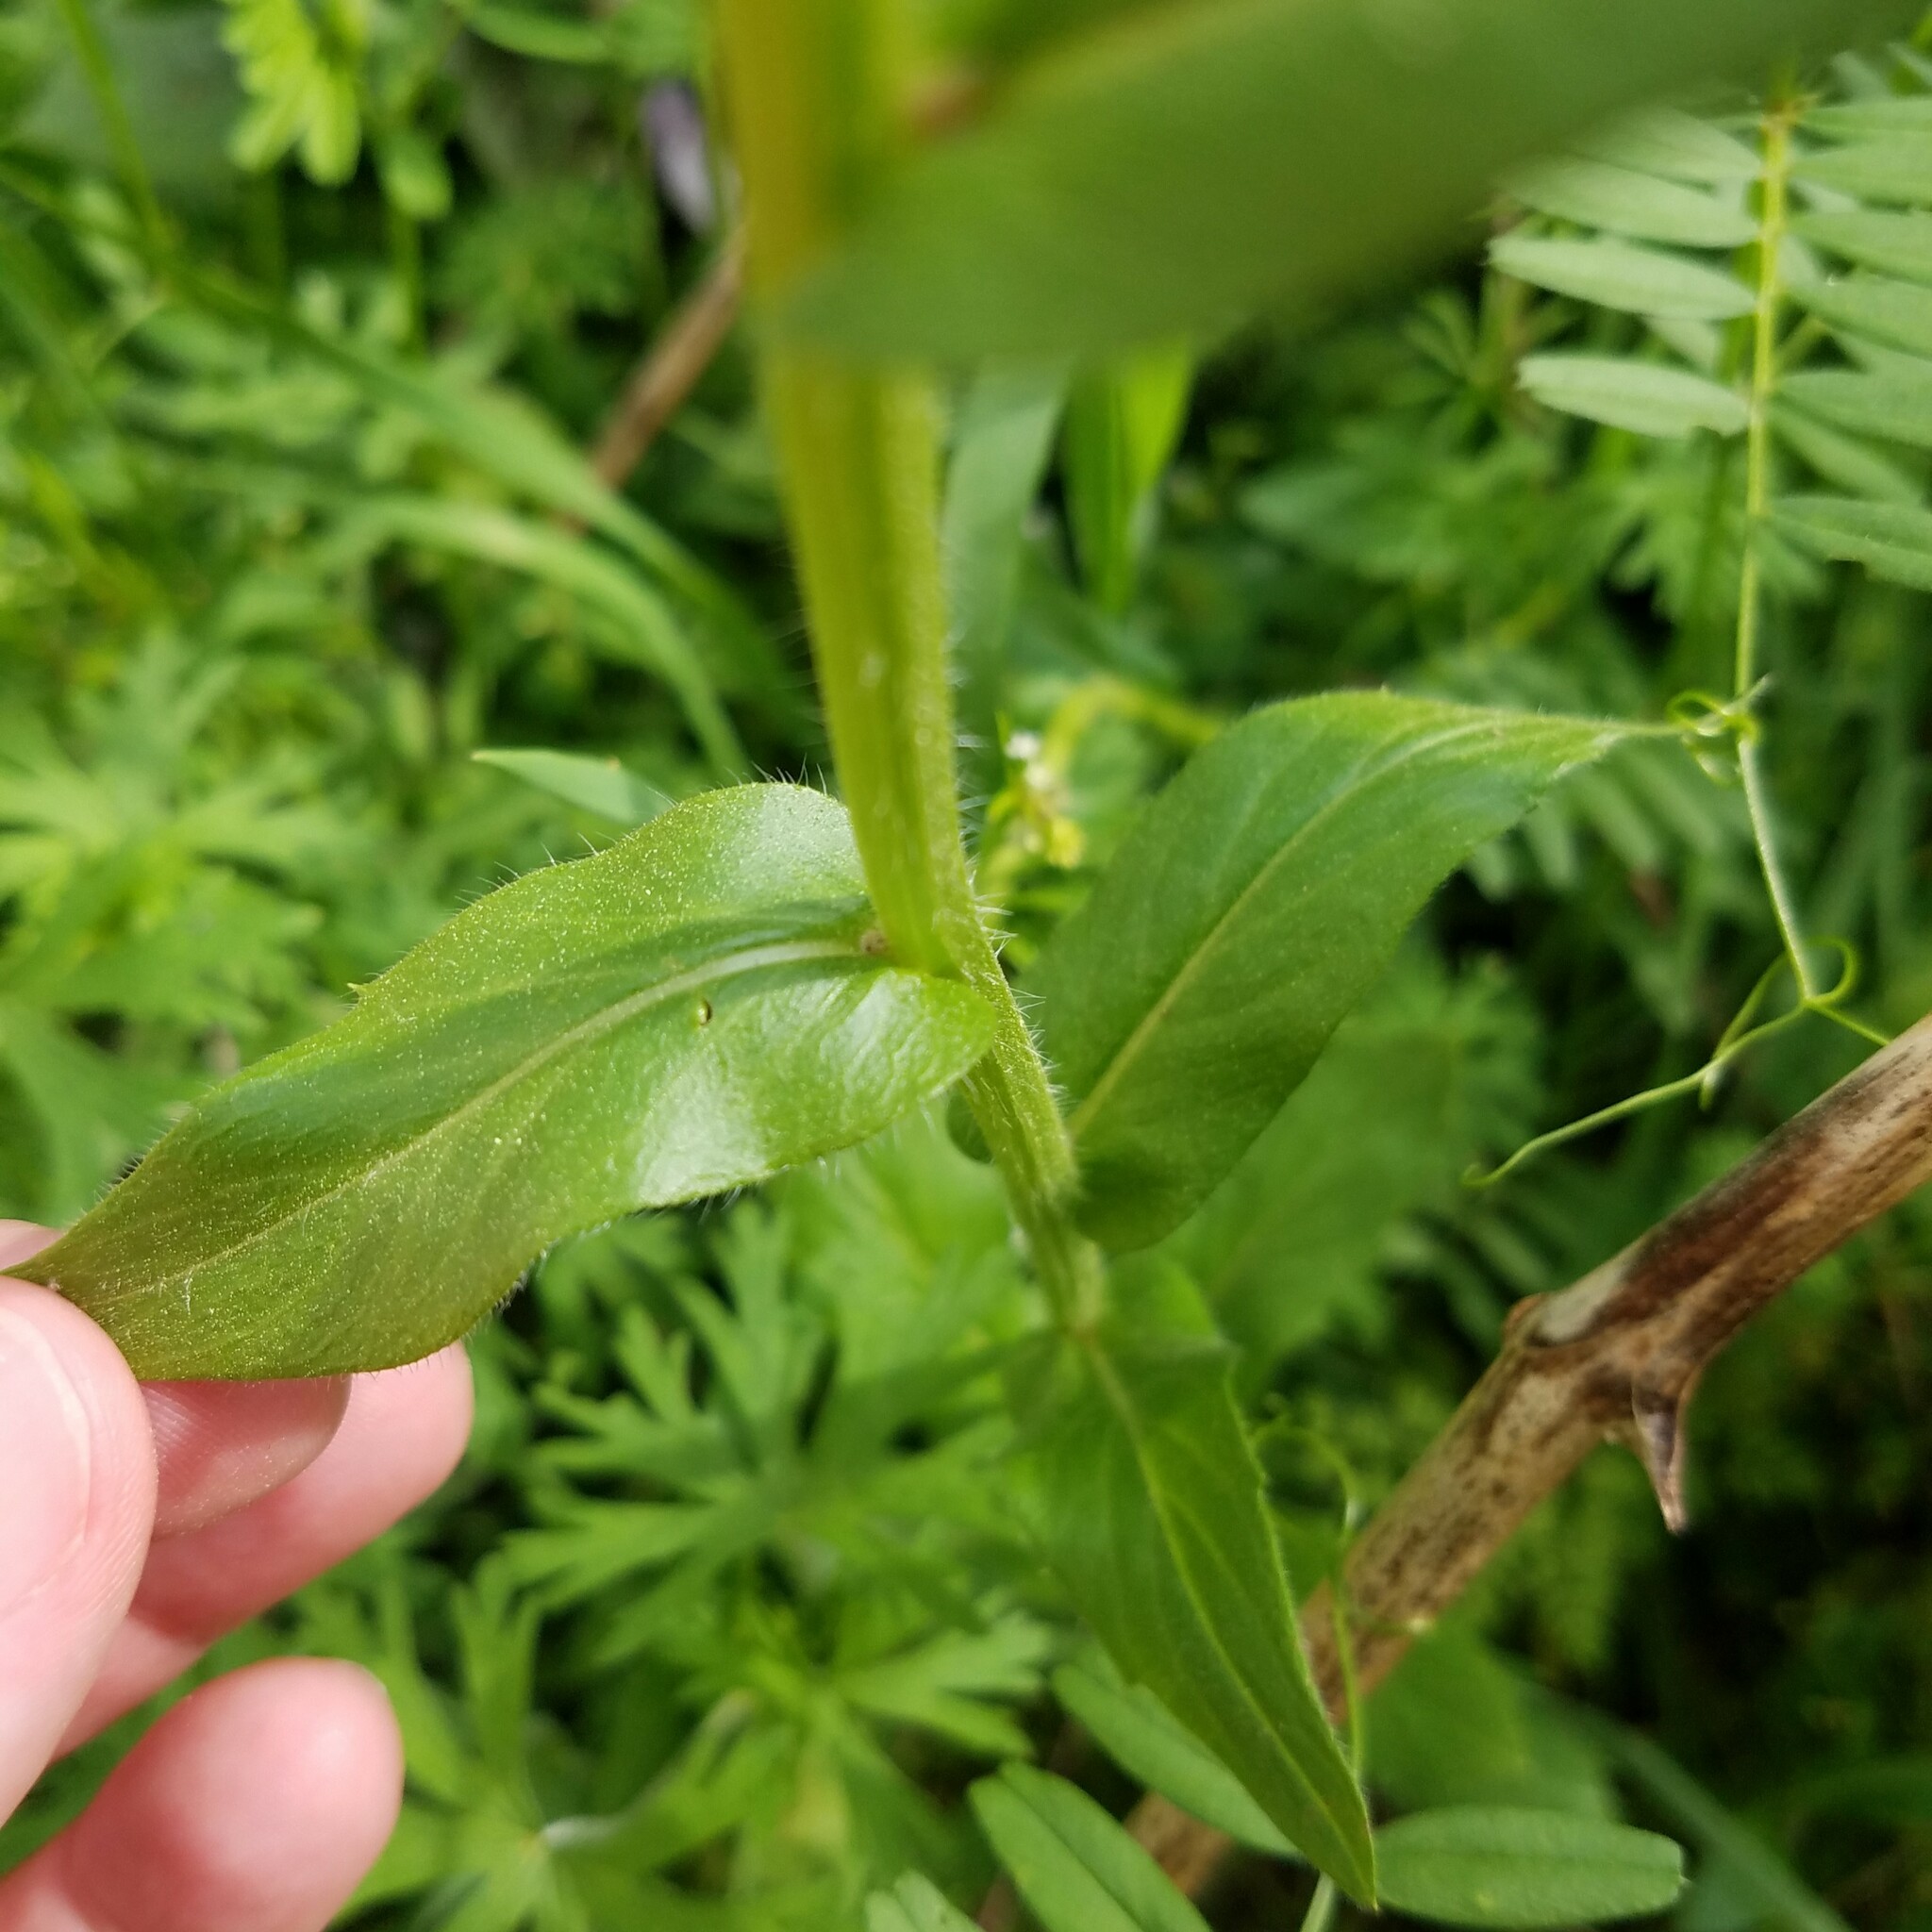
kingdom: Plantae
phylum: Tracheophyta
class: Magnoliopsida
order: Asterales
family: Asteraceae
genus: Erigeron
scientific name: Erigeron philadelphicus
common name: Robin's-plantain
